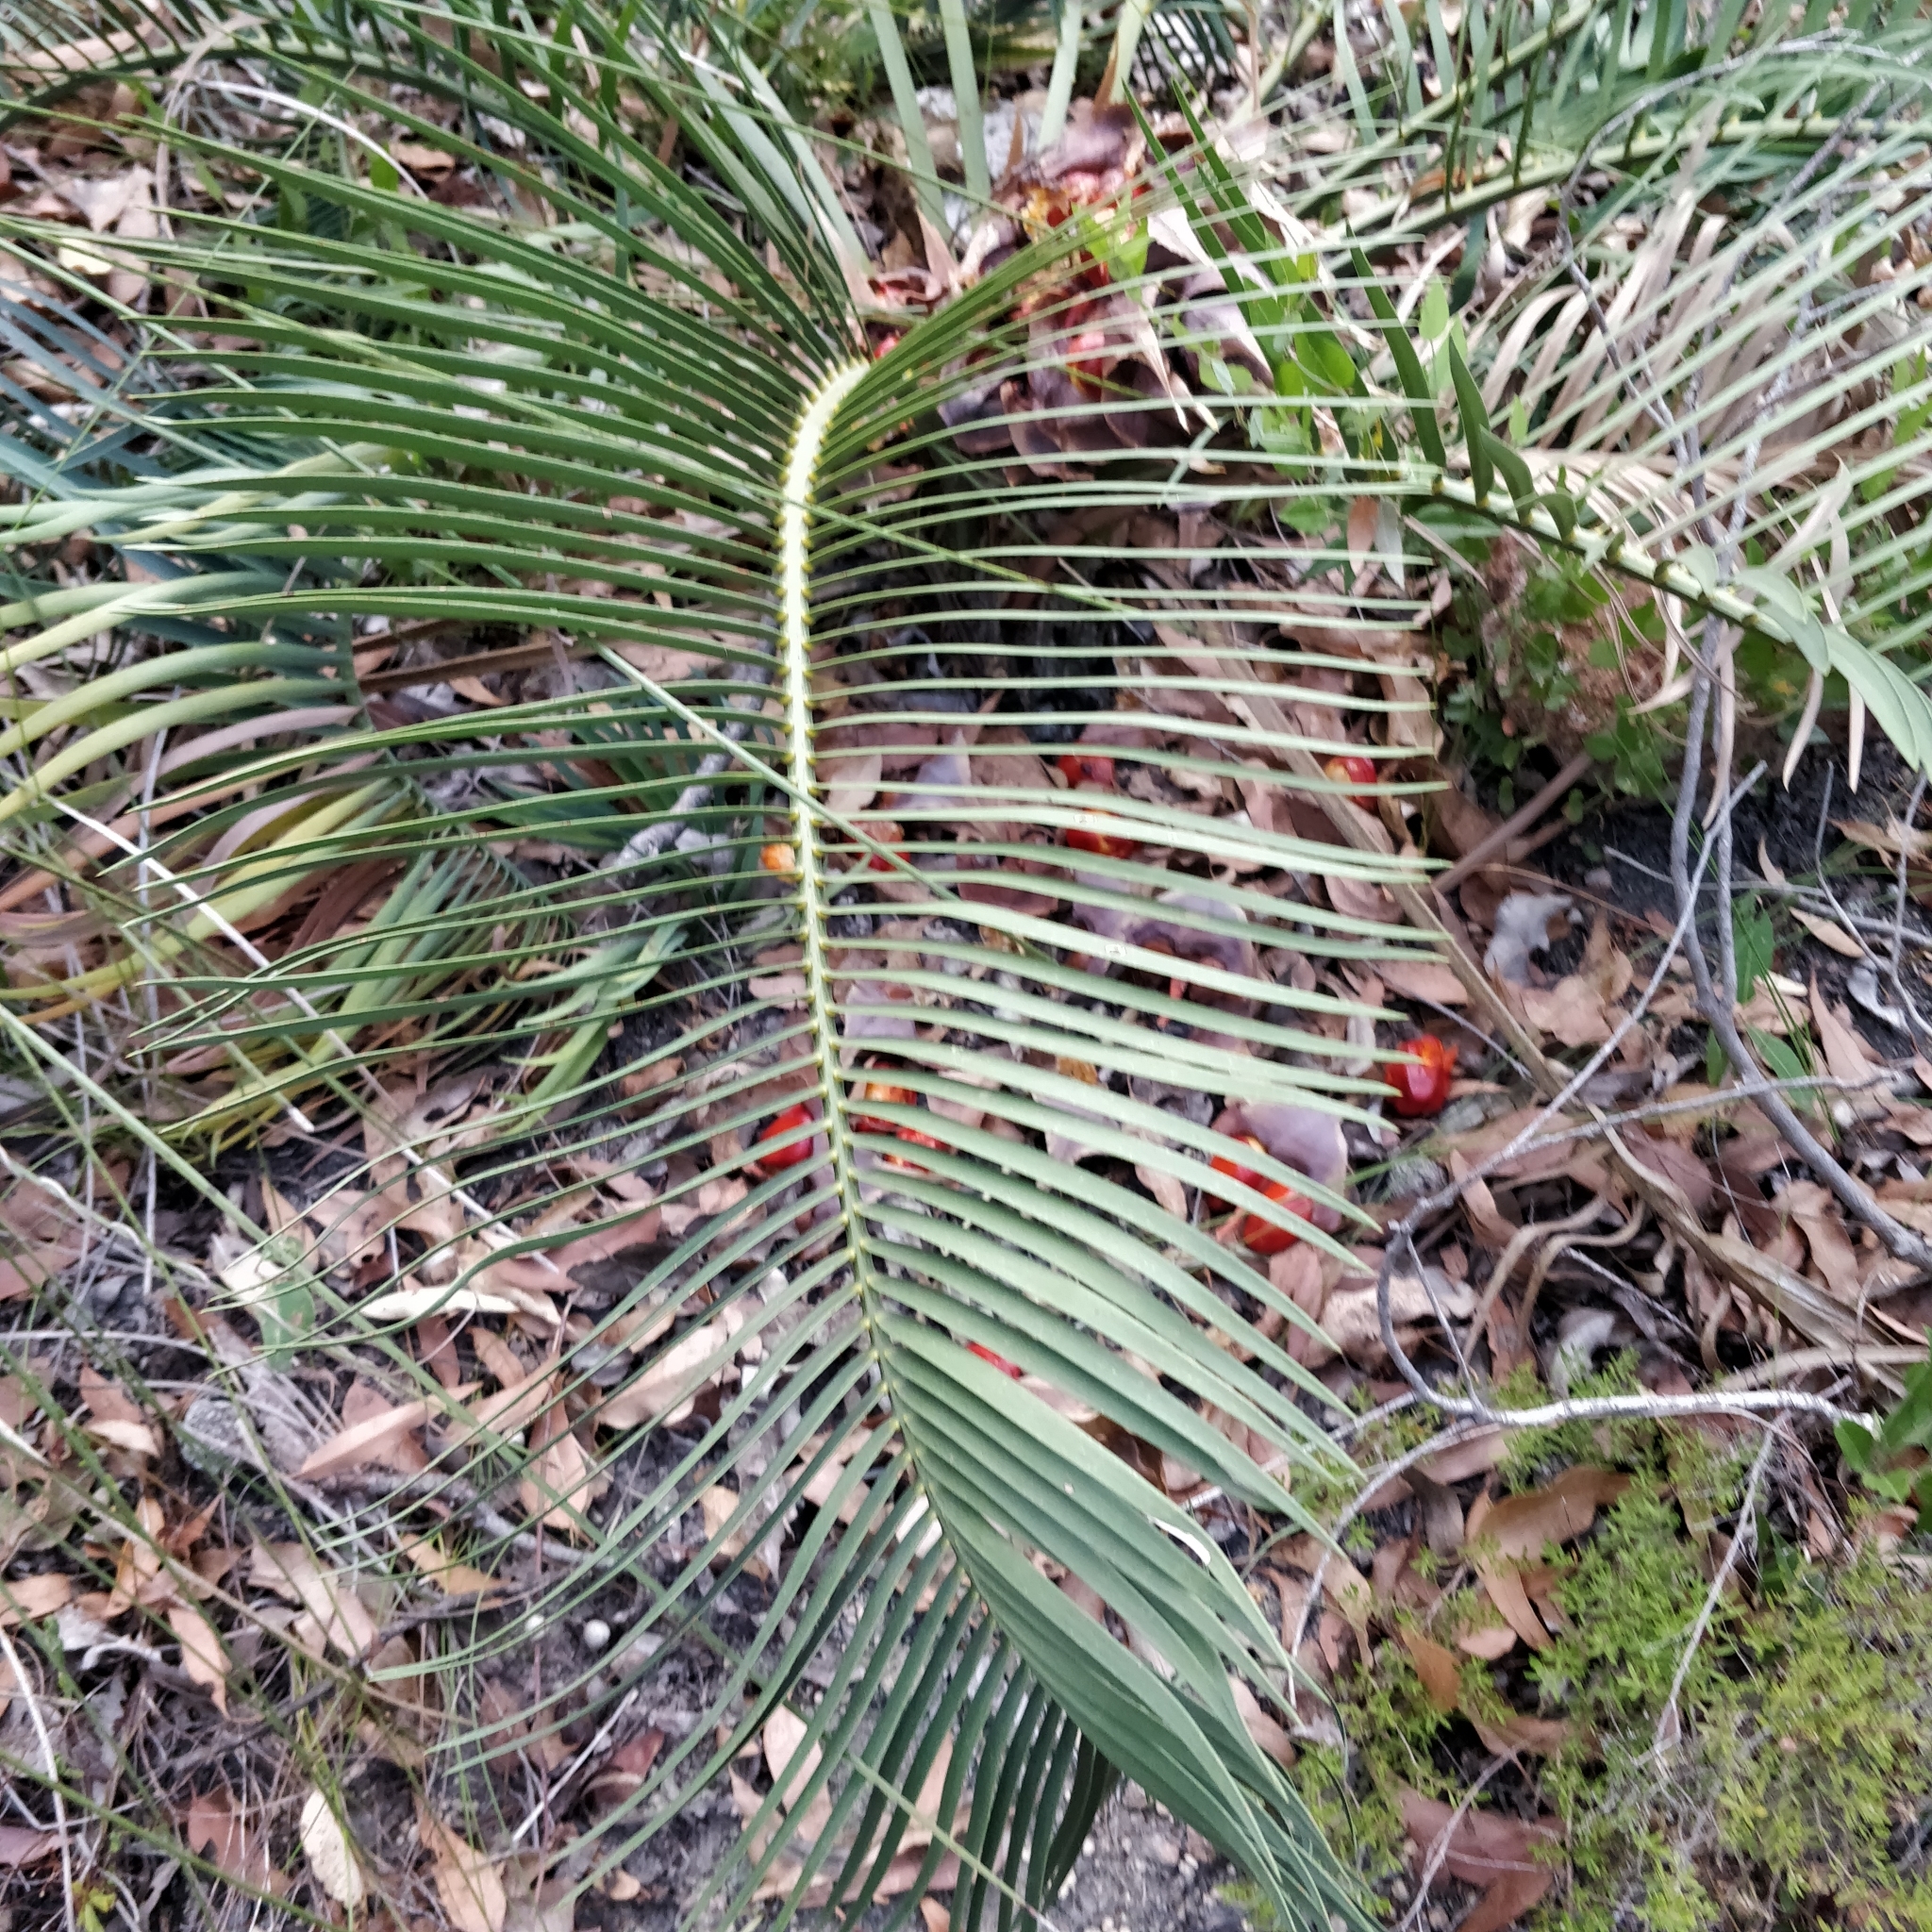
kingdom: Plantae
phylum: Tracheophyta
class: Cycadopsida
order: Cycadales
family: Zamiaceae
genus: Macrozamia
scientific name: Macrozamia riedlei
